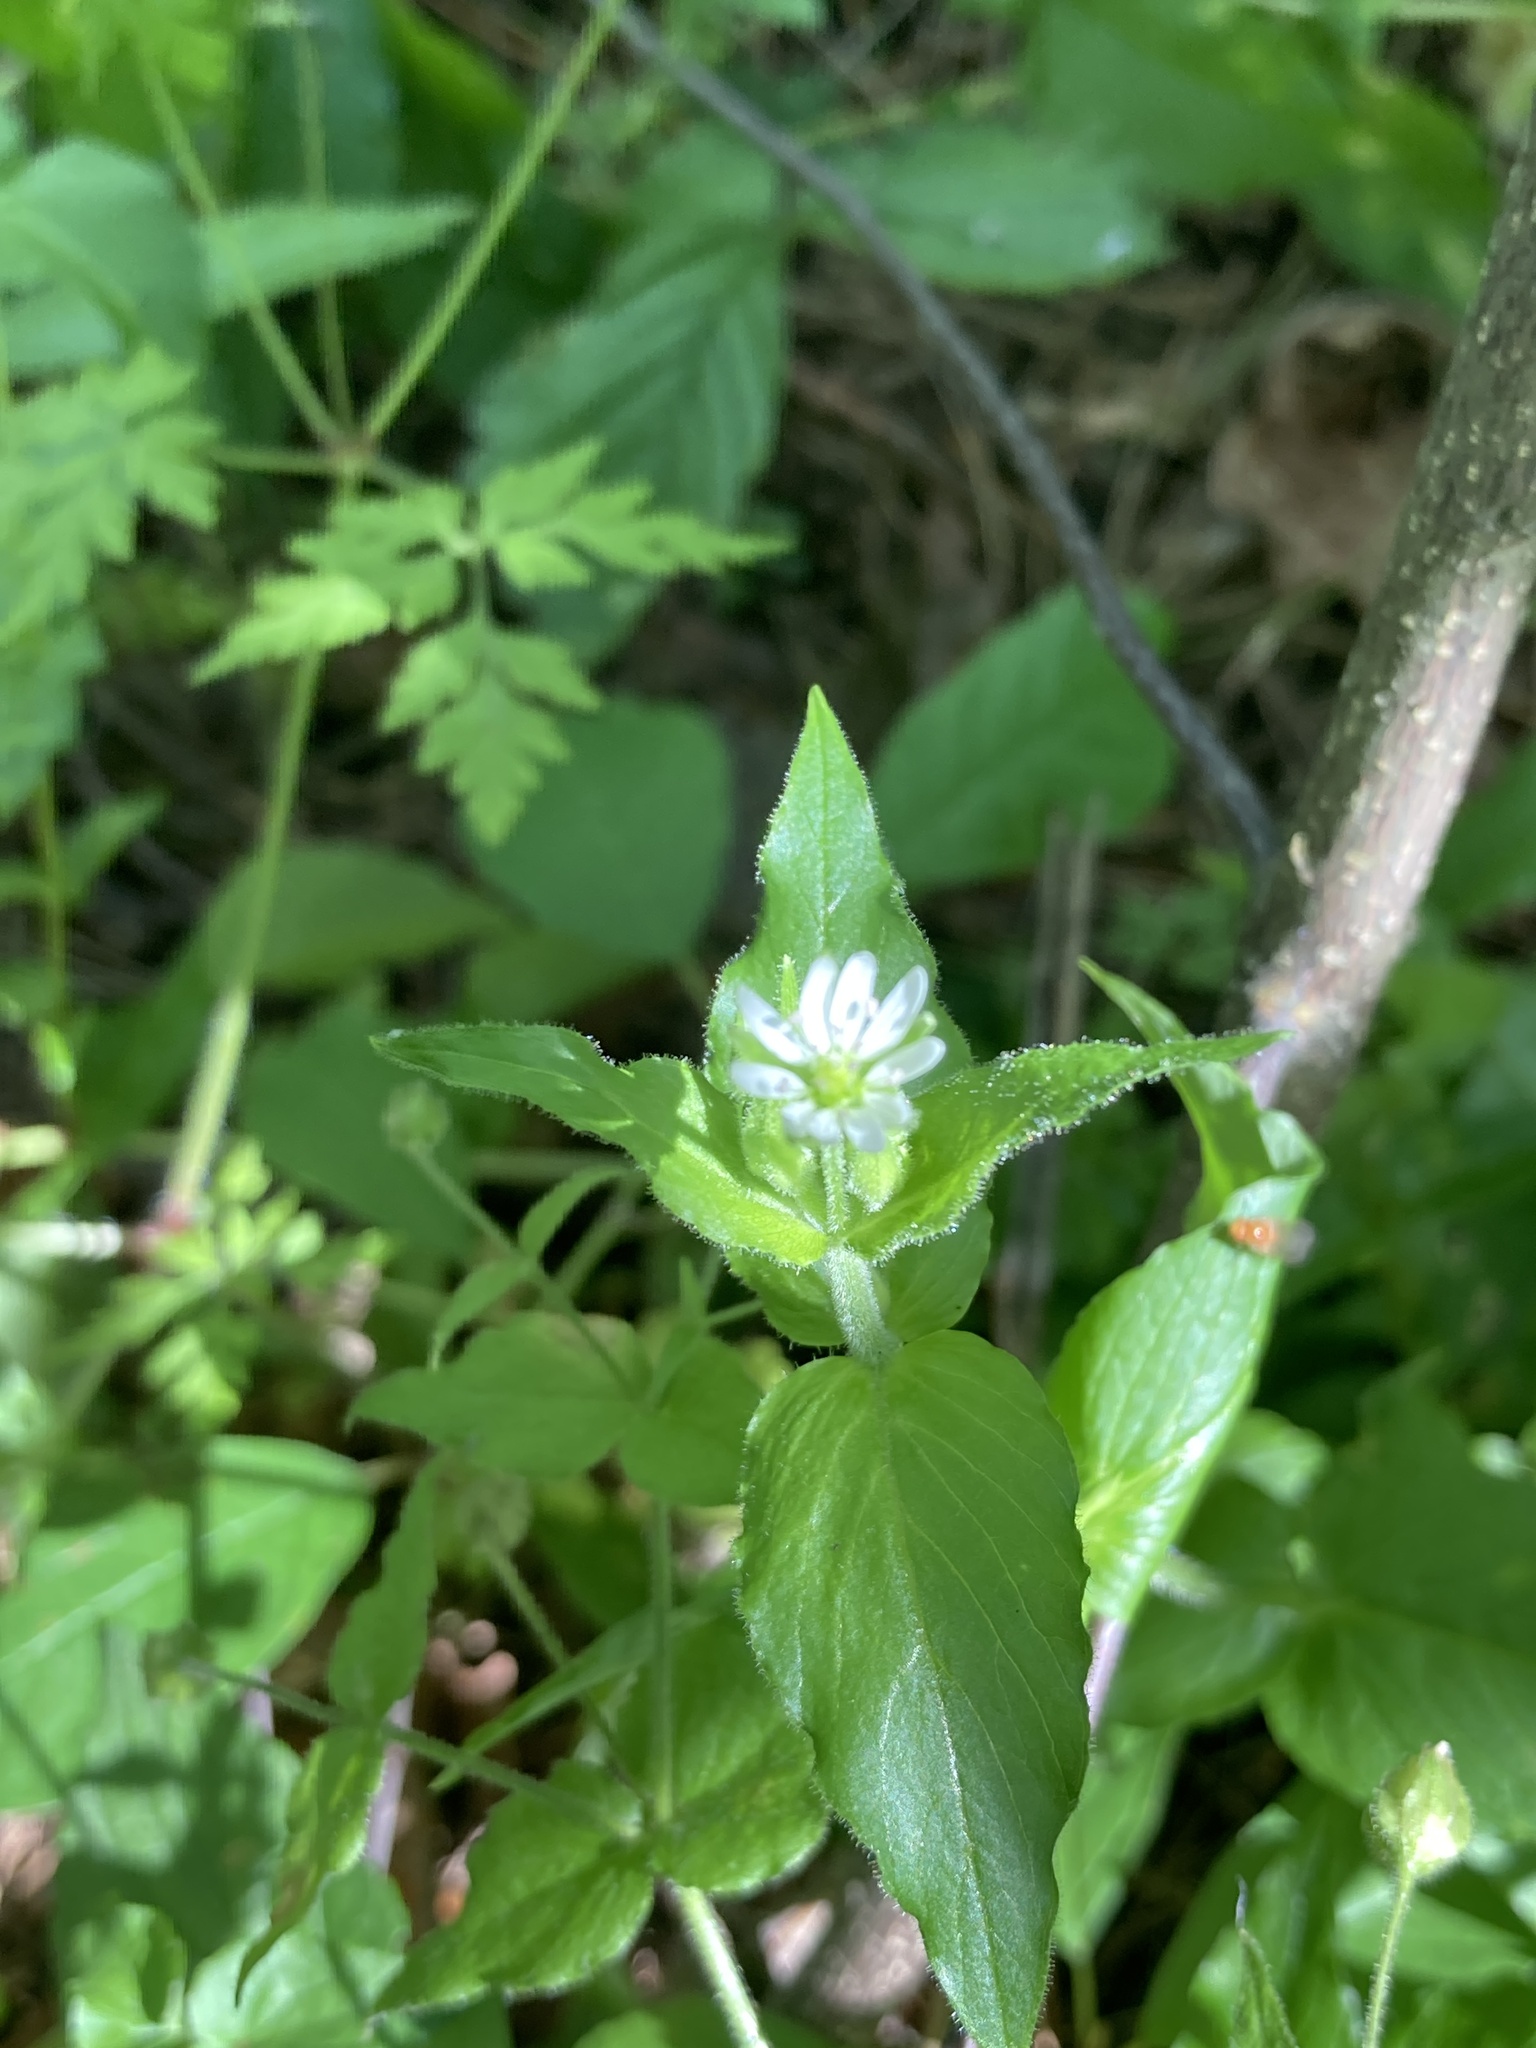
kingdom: Plantae
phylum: Tracheophyta
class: Magnoliopsida
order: Caryophyllales
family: Caryophyllaceae
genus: Stellaria
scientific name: Stellaria aquatica
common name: Water chickweed
